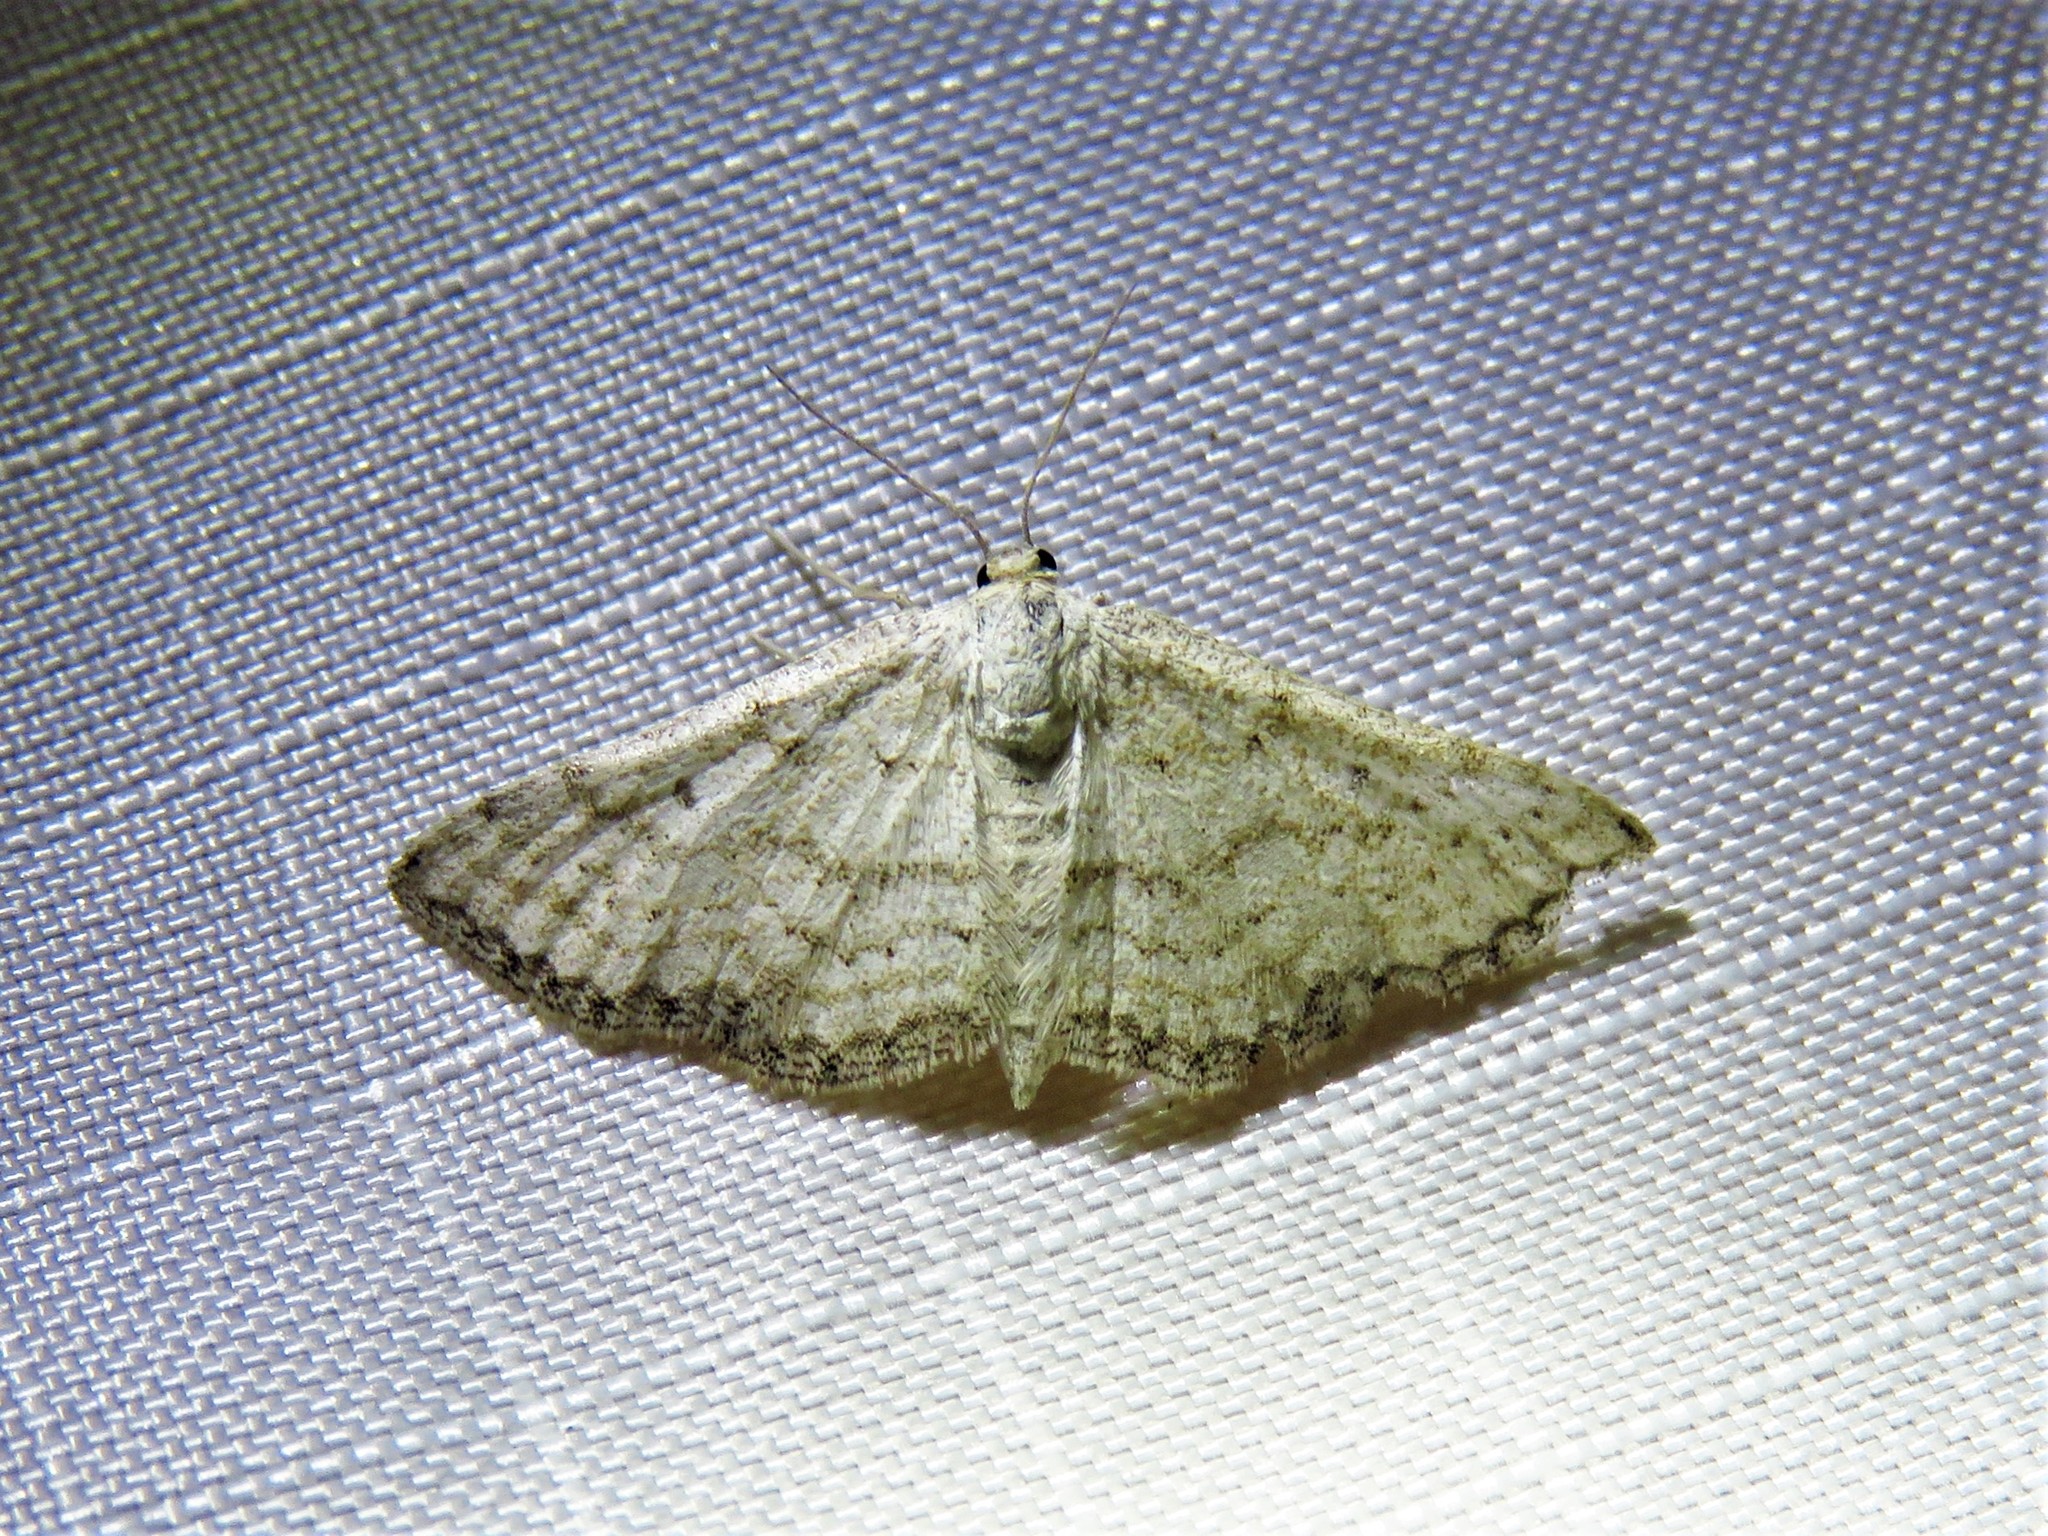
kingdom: Animalia
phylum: Arthropoda
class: Insecta
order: Lepidoptera
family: Geometridae
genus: Lobocleta
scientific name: Lobocleta ossularia
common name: Drab brown wave
